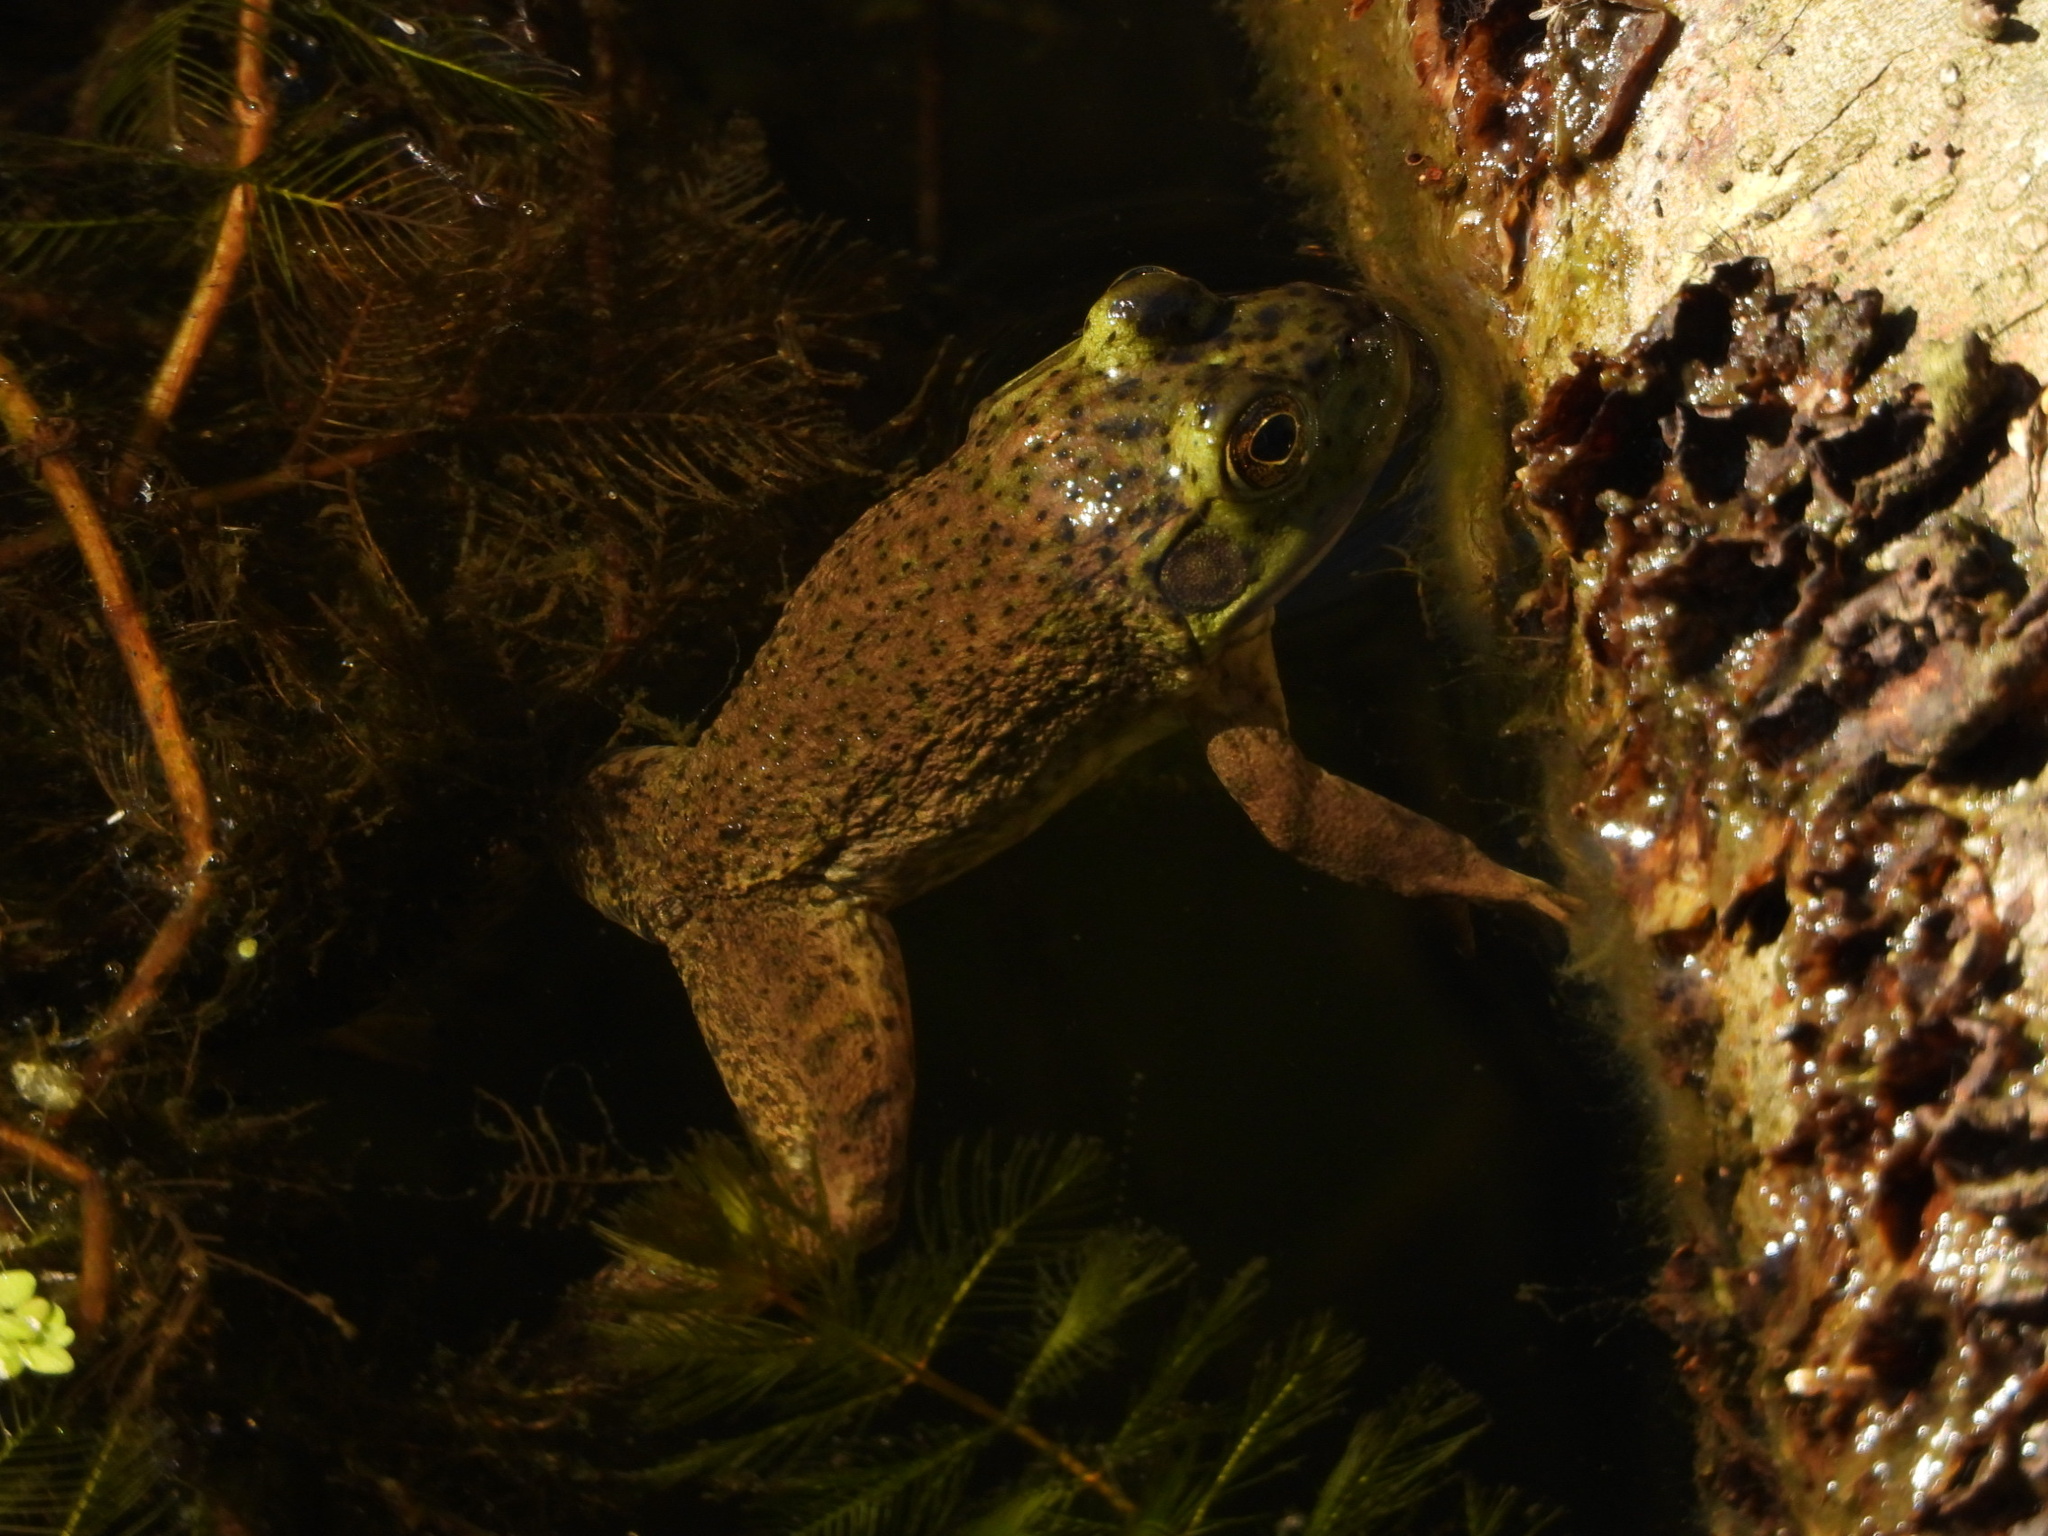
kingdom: Animalia
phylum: Chordata
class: Amphibia
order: Anura
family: Ranidae
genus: Lithobates
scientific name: Lithobates catesbeianus
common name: American bullfrog
